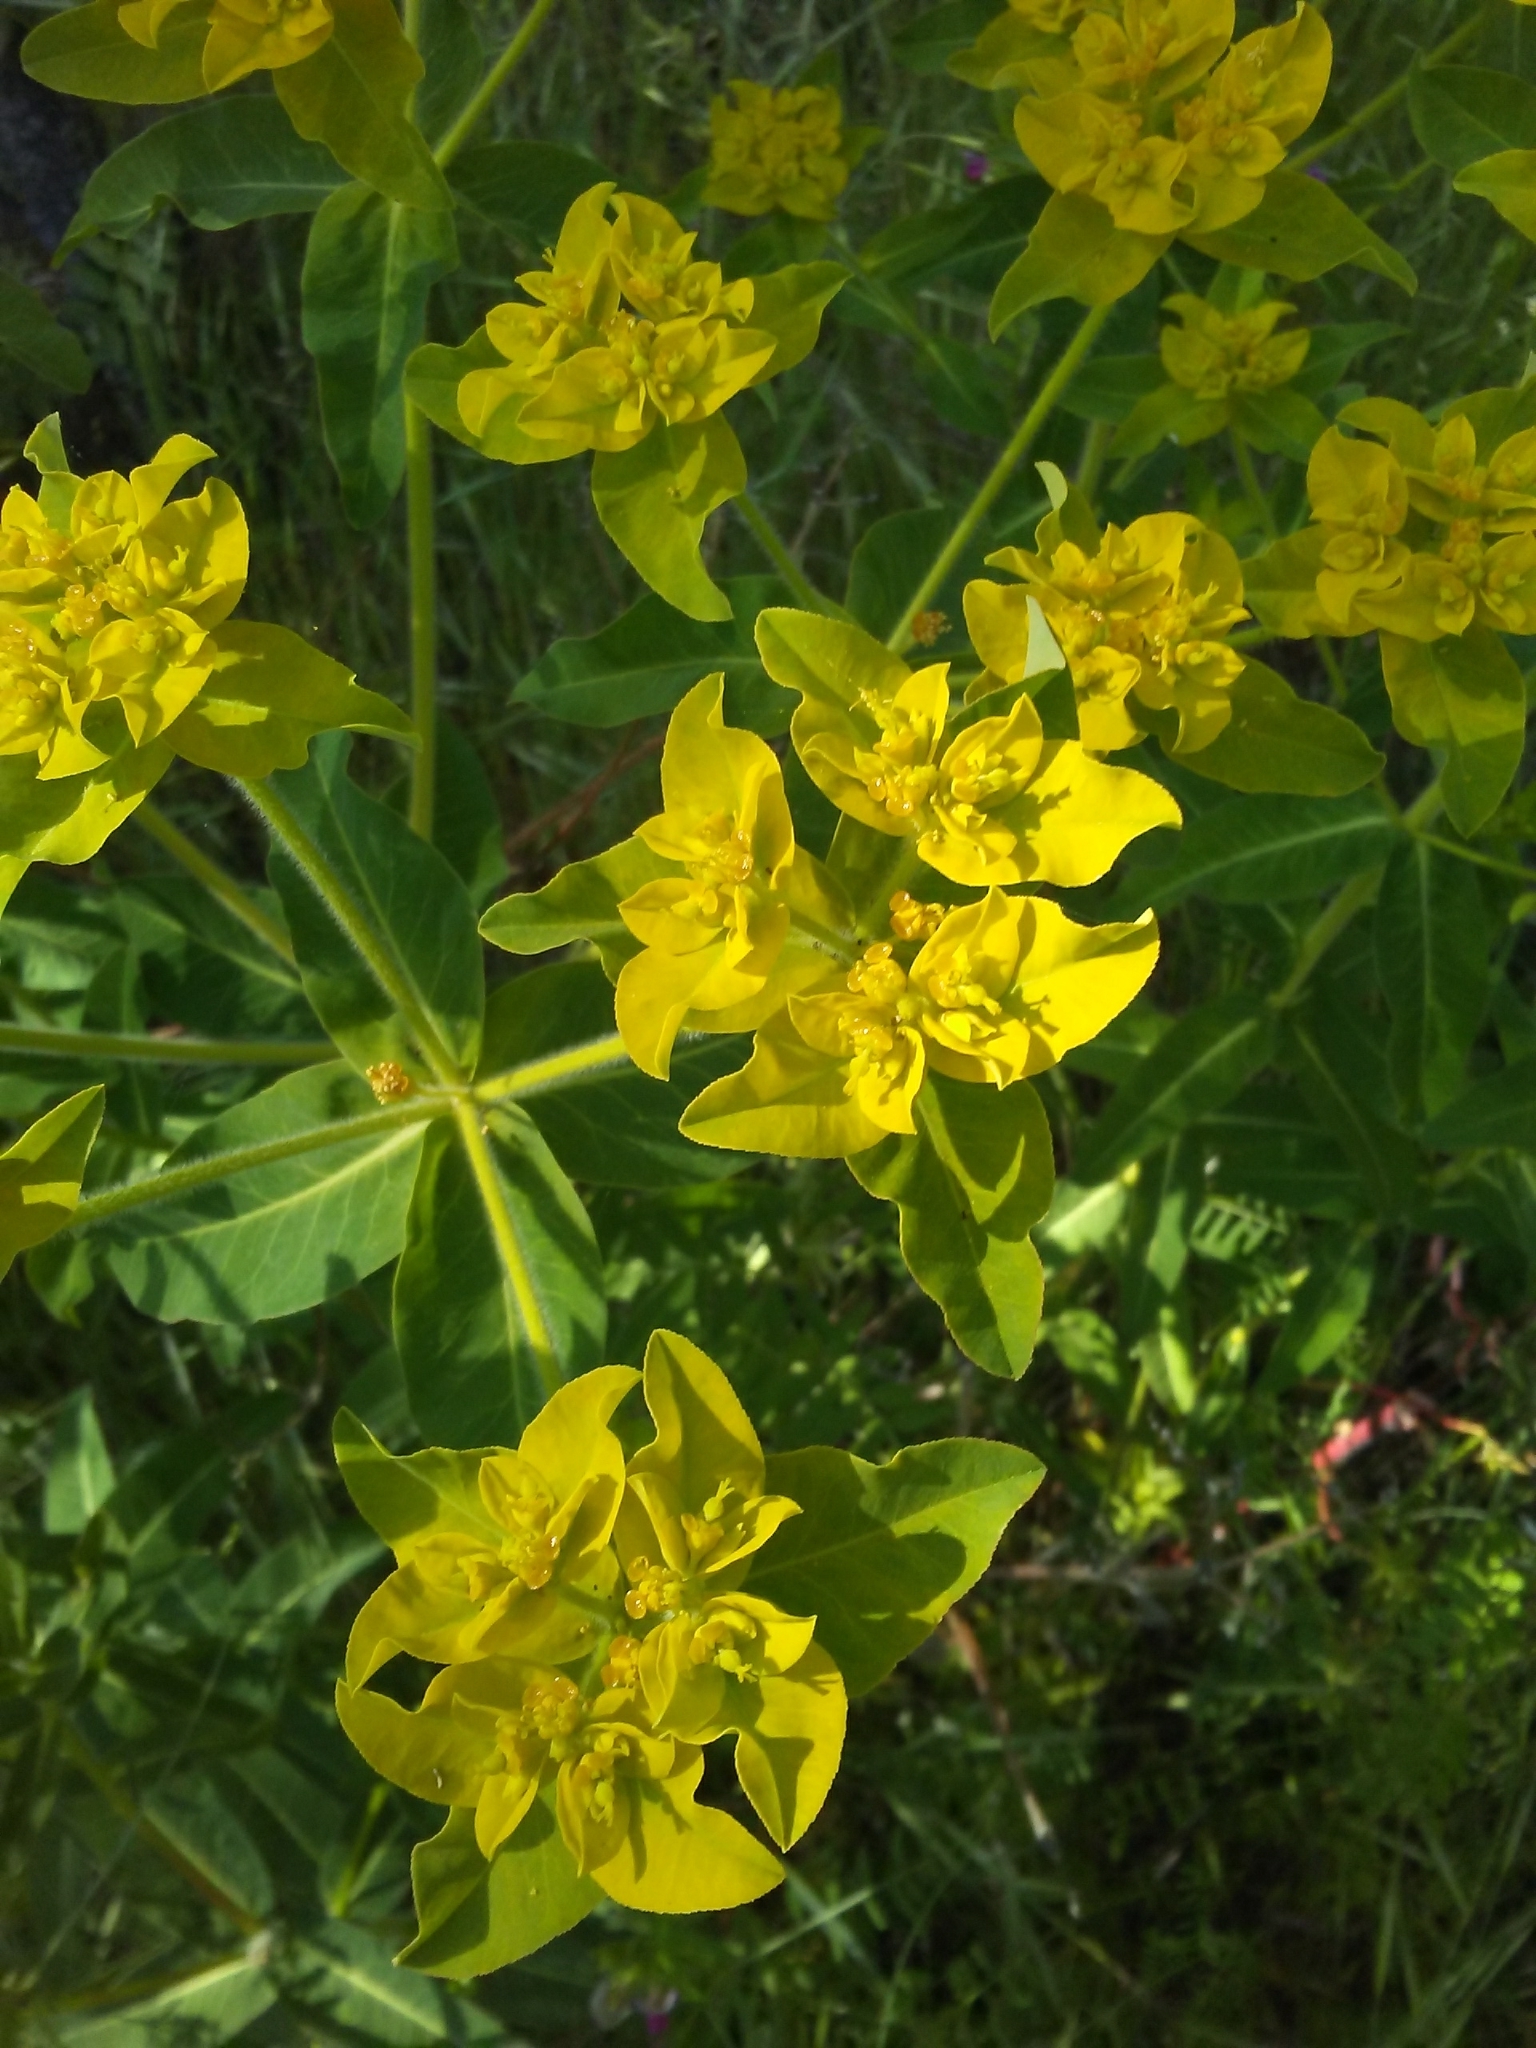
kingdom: Plantae
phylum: Tracheophyta
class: Magnoliopsida
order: Malpighiales
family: Euphorbiaceae
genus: Euphorbia
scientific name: Euphorbia oblongata
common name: Balkan spurge
